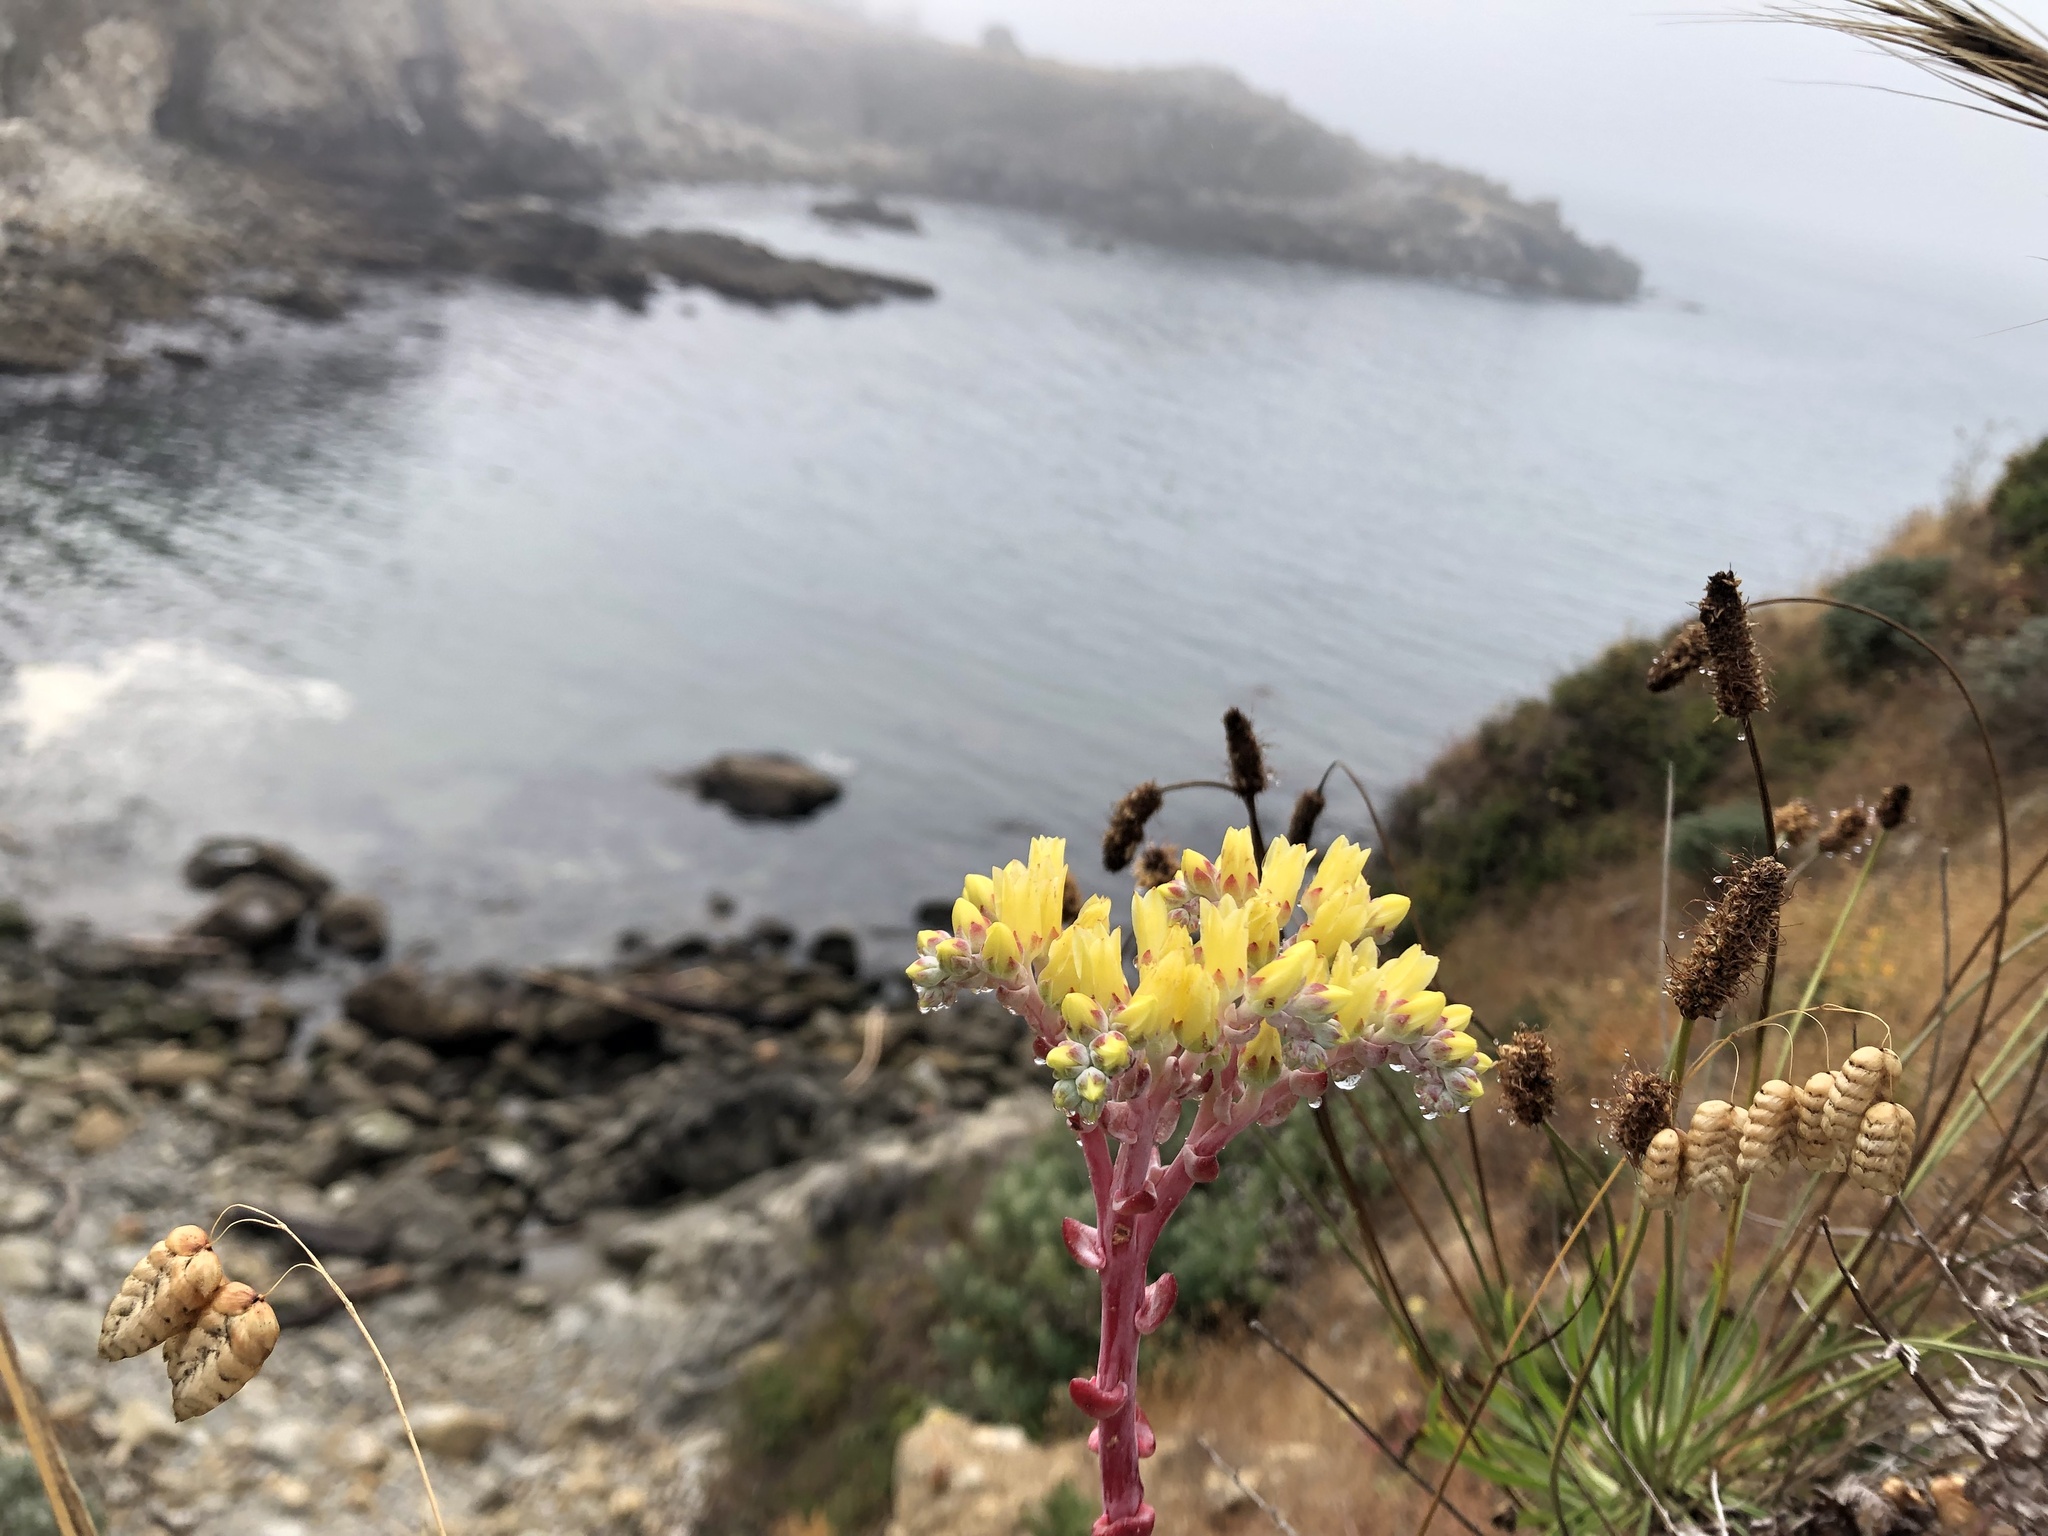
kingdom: Plantae
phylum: Tracheophyta
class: Magnoliopsida
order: Saxifragales
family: Crassulaceae
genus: Dudleya
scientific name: Dudleya farinosa
